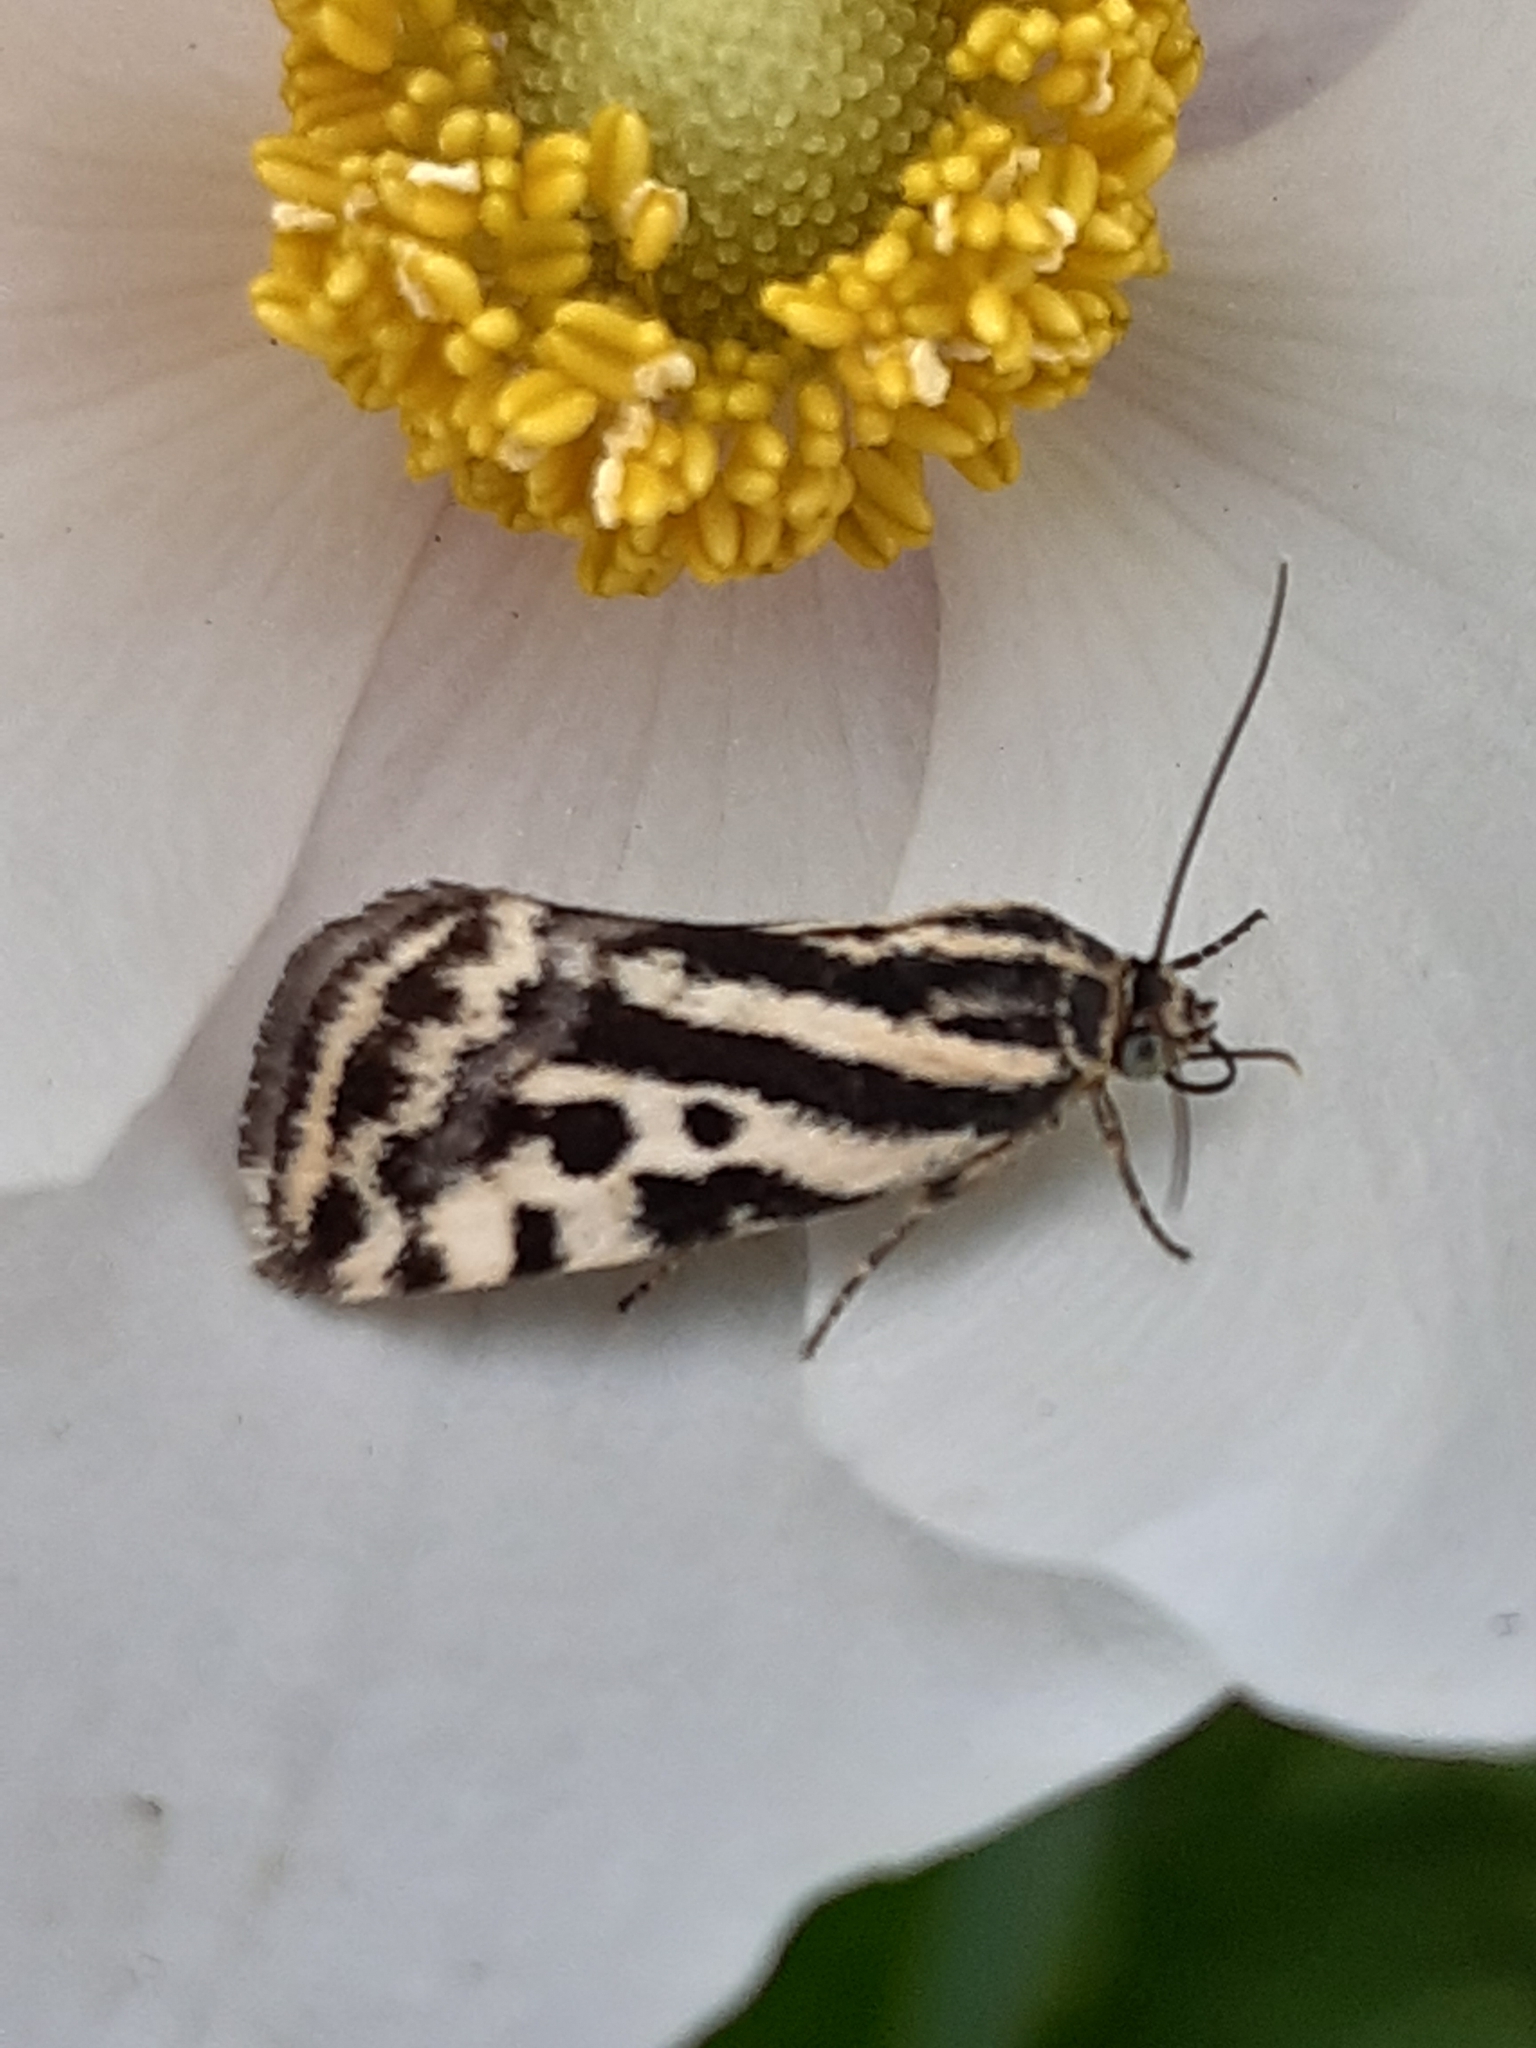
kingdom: Animalia
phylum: Arthropoda
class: Insecta
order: Lepidoptera
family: Noctuidae
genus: Acontia
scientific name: Acontia trabealis
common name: Spotted sulphur
